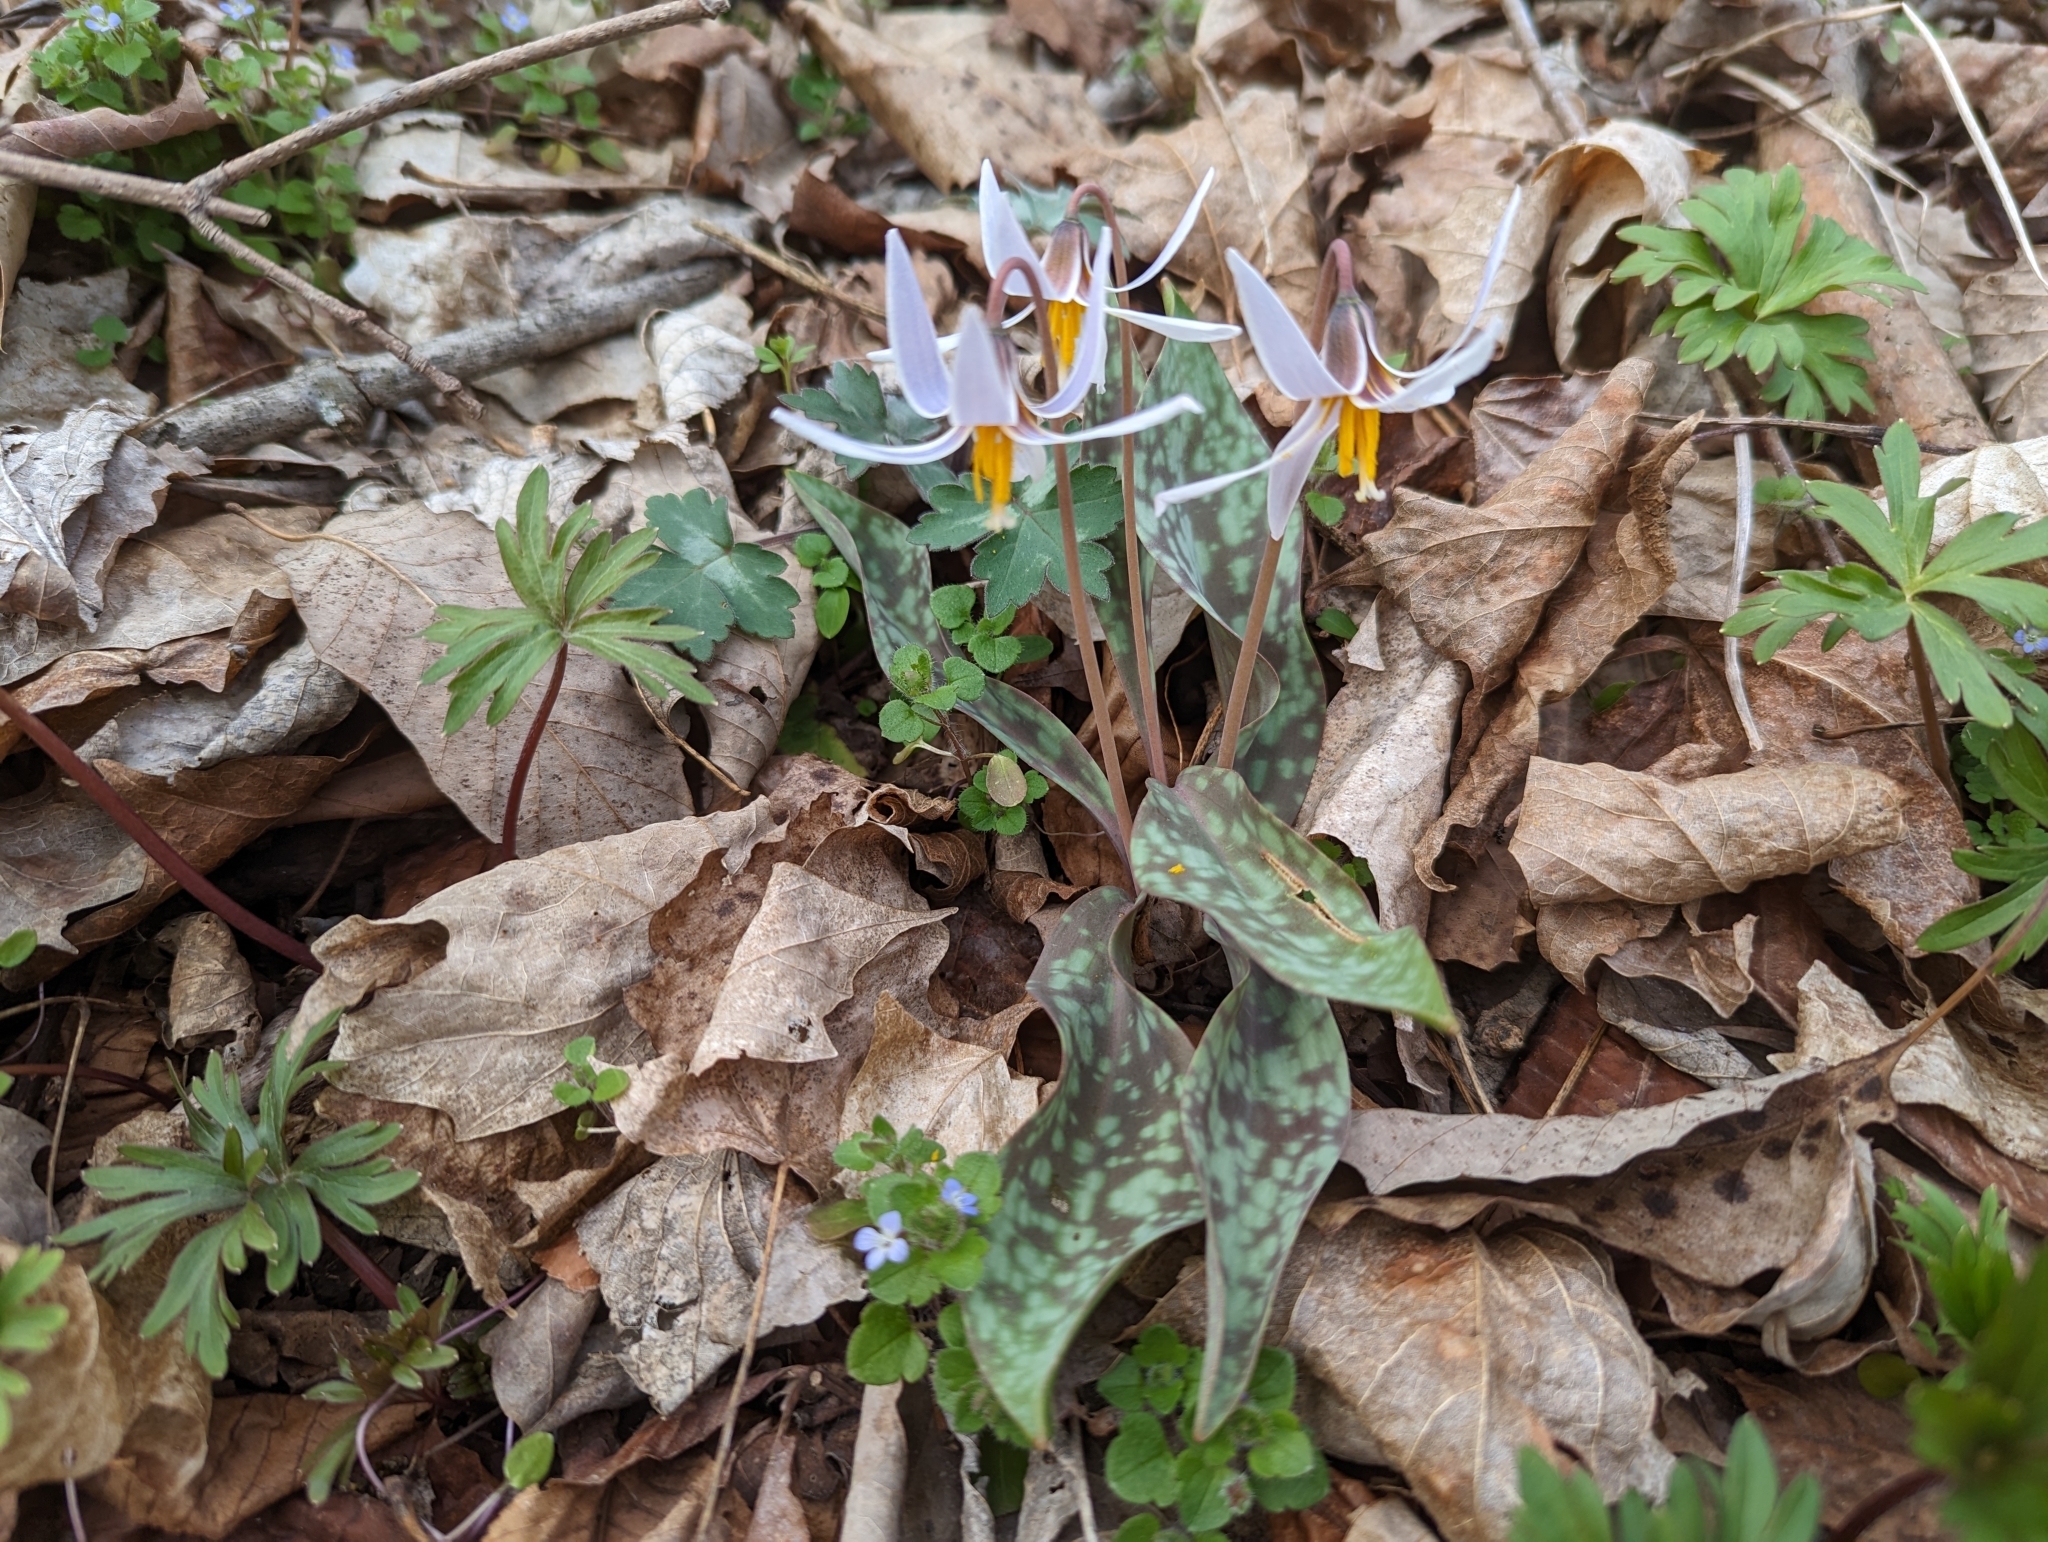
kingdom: Plantae
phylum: Tracheophyta
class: Liliopsida
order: Liliales
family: Liliaceae
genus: Erythronium
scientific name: Erythronium albidum
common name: White trout-lily
